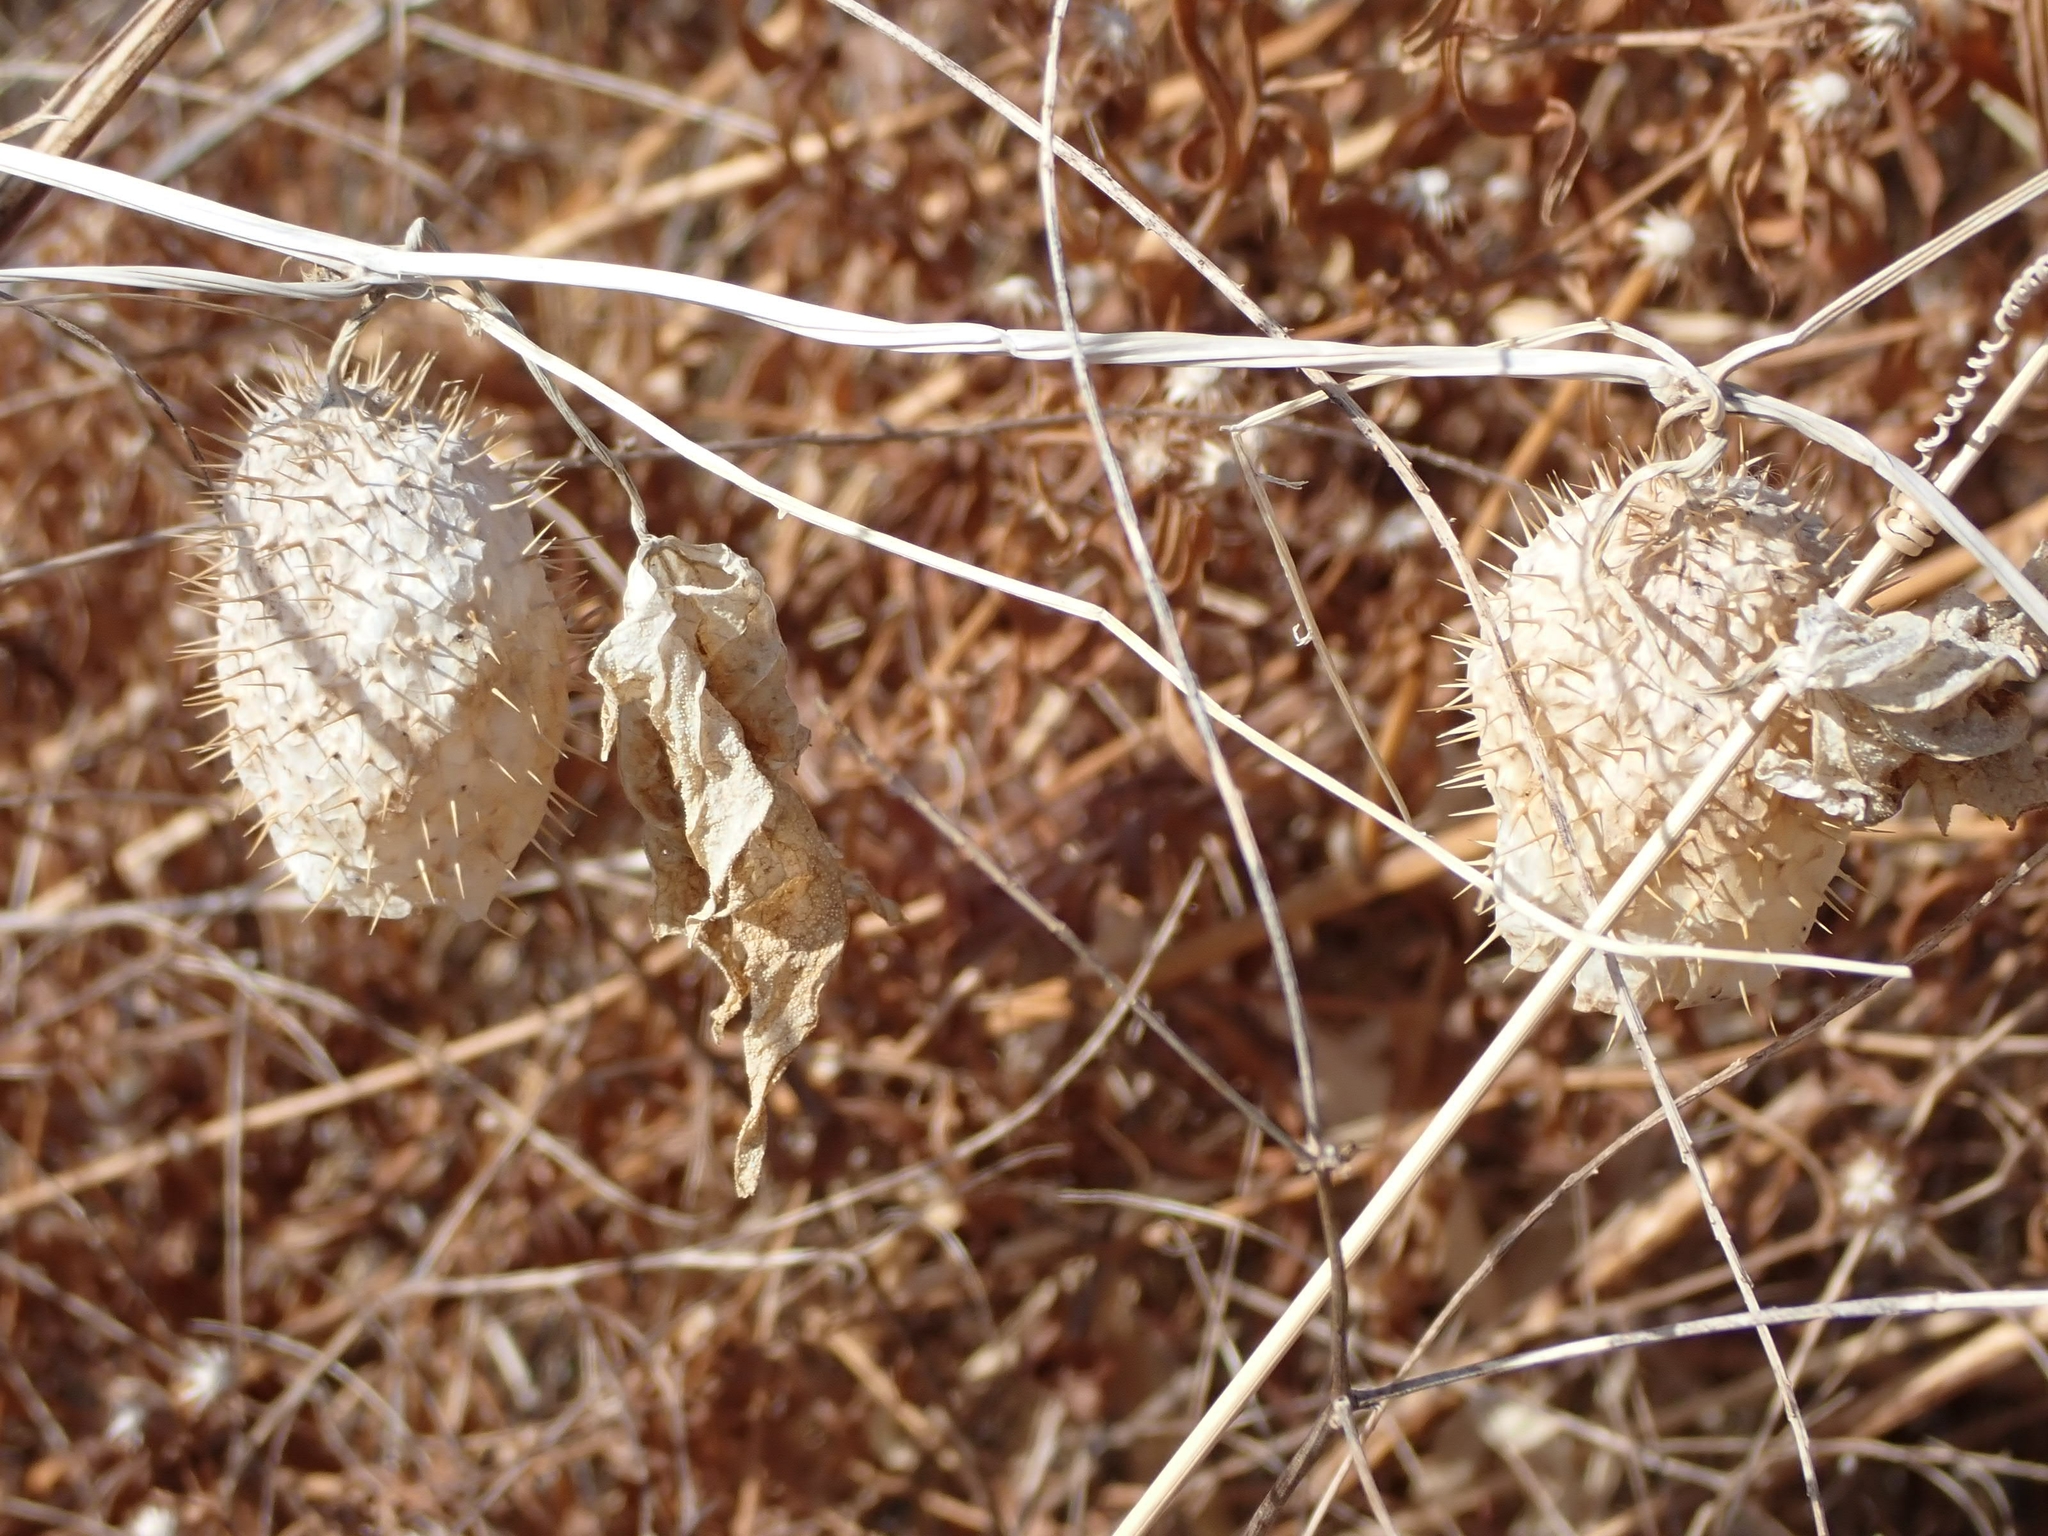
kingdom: Plantae
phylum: Tracheophyta
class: Magnoliopsida
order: Cucurbitales
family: Cucurbitaceae
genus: Echinocystis
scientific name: Echinocystis lobata
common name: Wild cucumber
